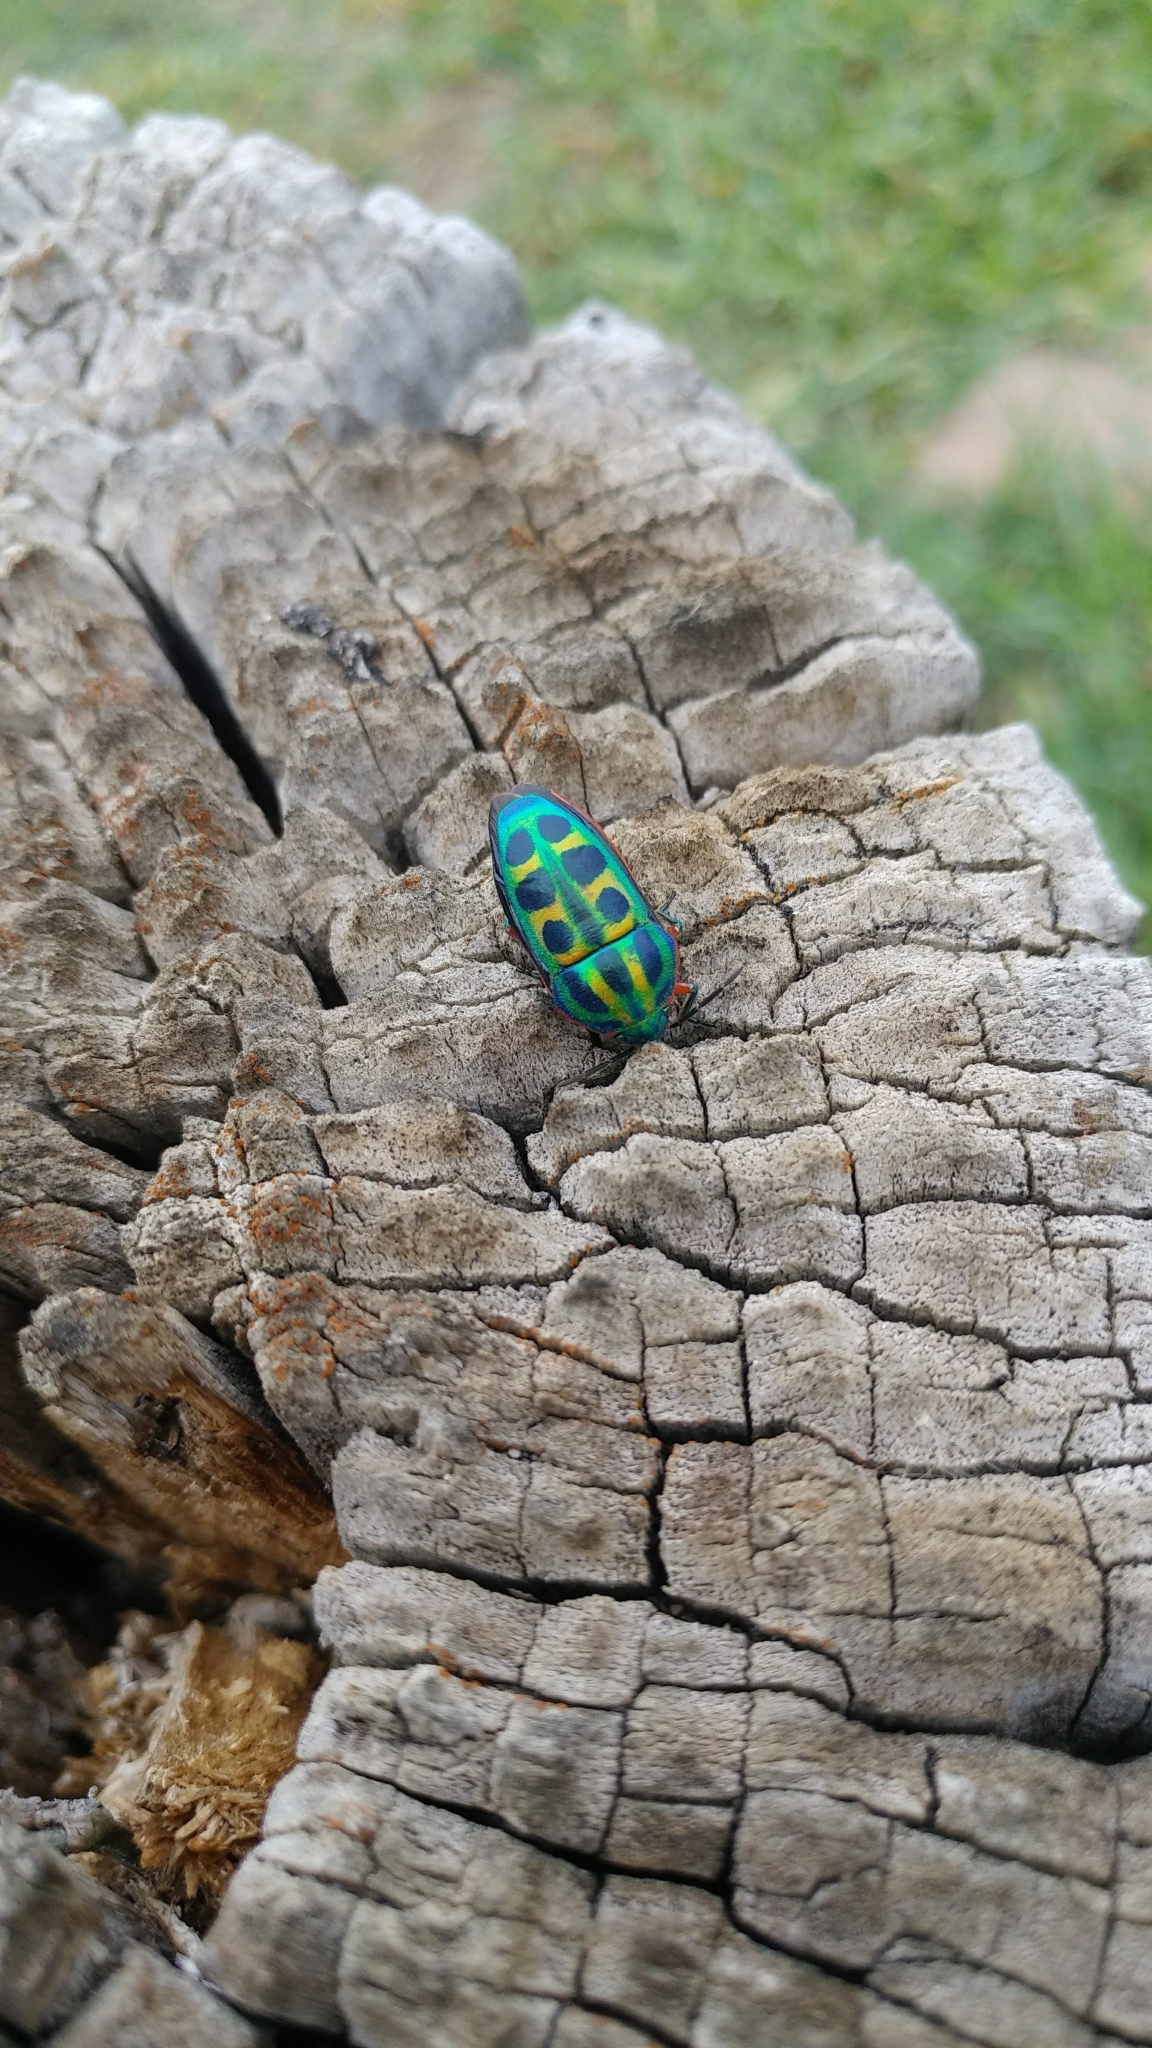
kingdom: Animalia
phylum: Arthropoda
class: Insecta
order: Hemiptera
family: Scutelleridae
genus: Calidea
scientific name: Calidea dregii
